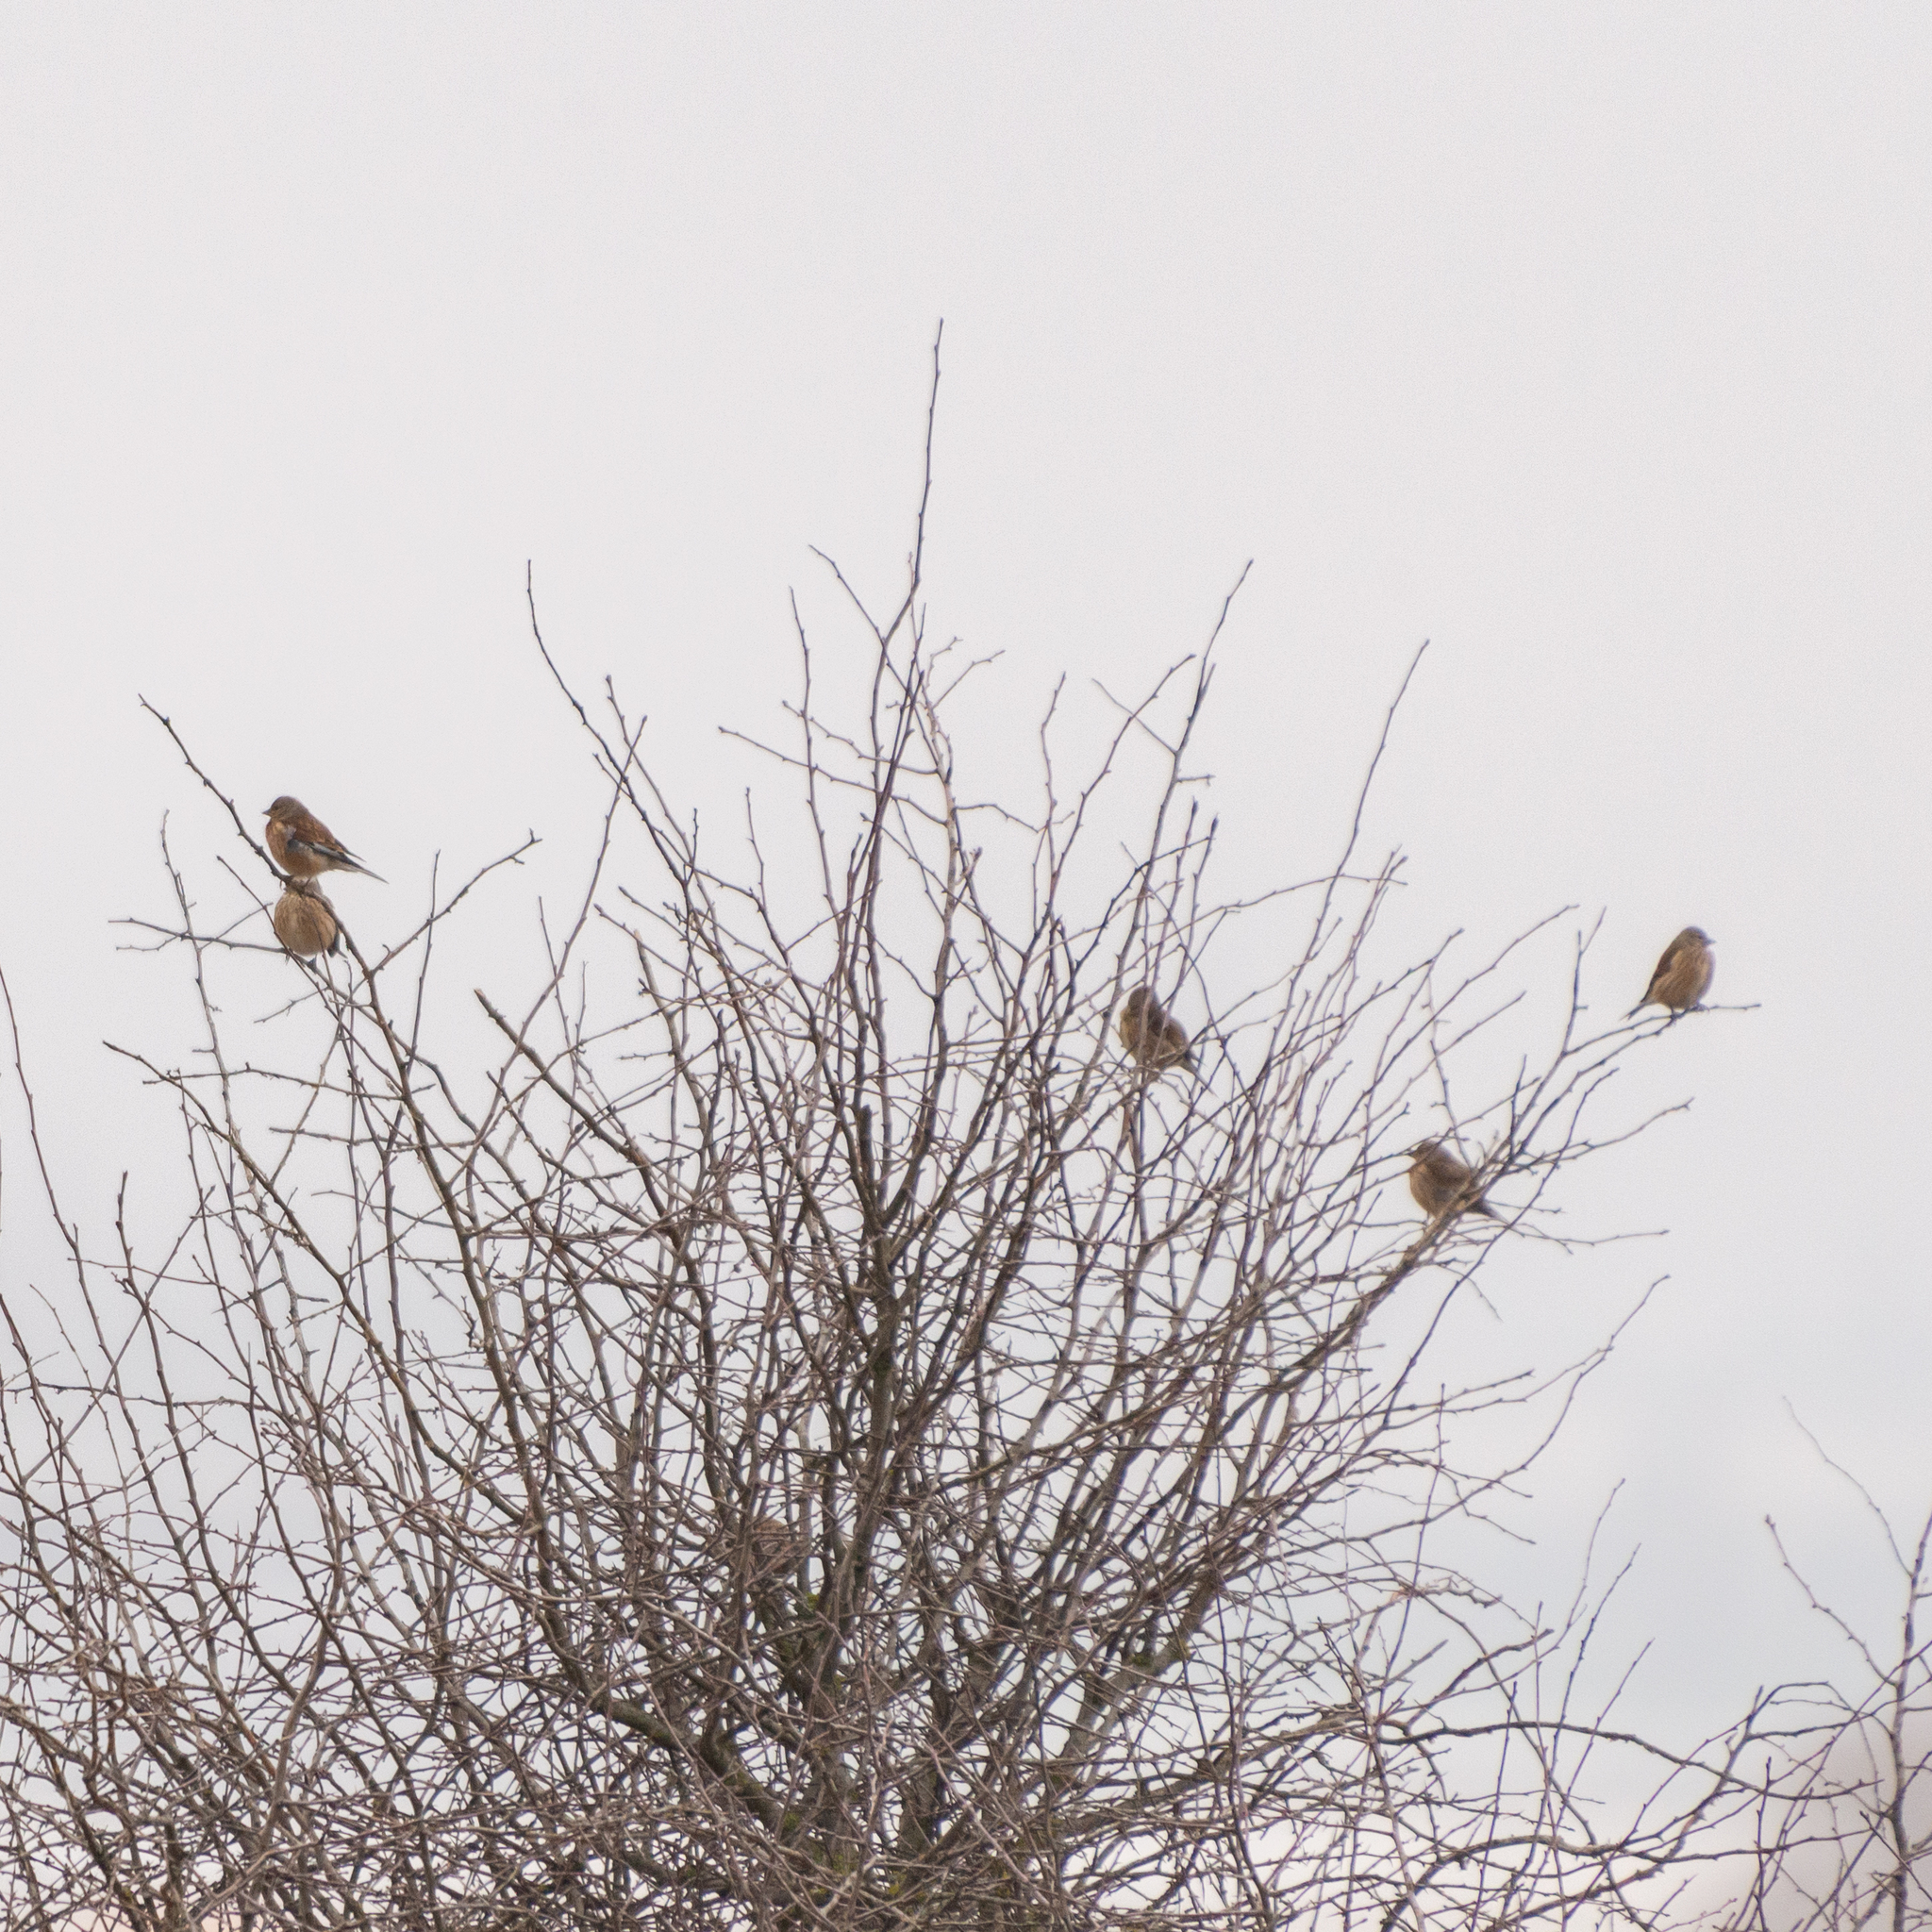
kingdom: Animalia
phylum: Chordata
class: Aves
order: Passeriformes
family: Fringillidae
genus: Linaria
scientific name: Linaria cannabina
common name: Common linnet
